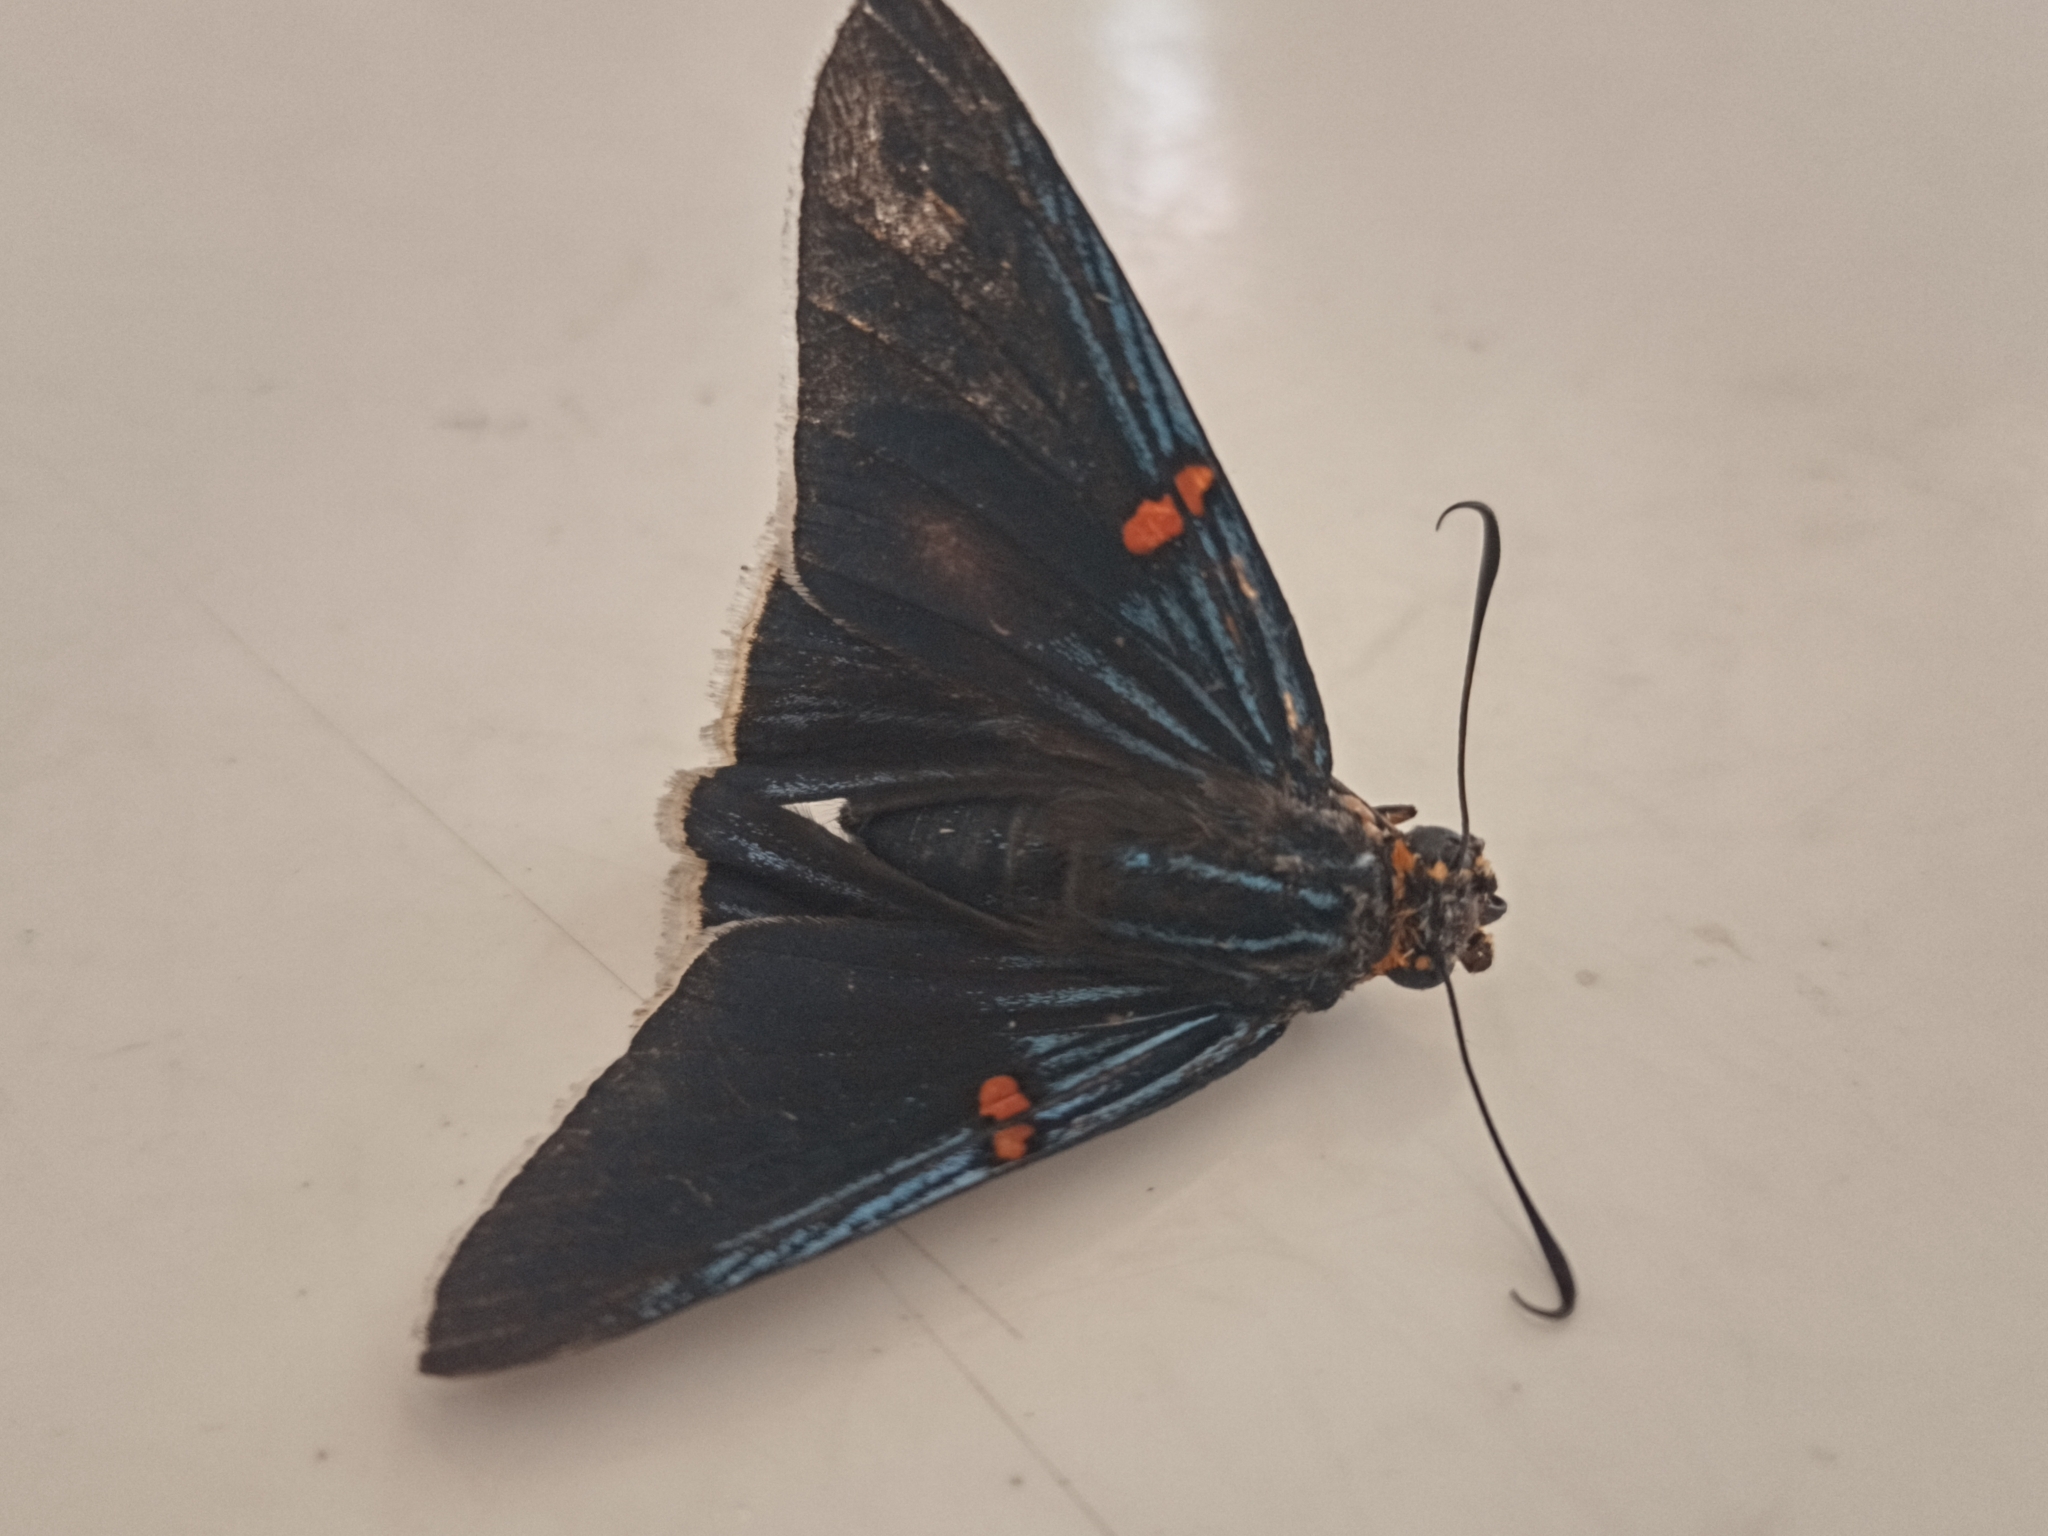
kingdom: Animalia
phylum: Arthropoda
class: Insecta
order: Lepidoptera
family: Hesperiidae
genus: Phocides
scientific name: Phocides lilea
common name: Guava skipper
